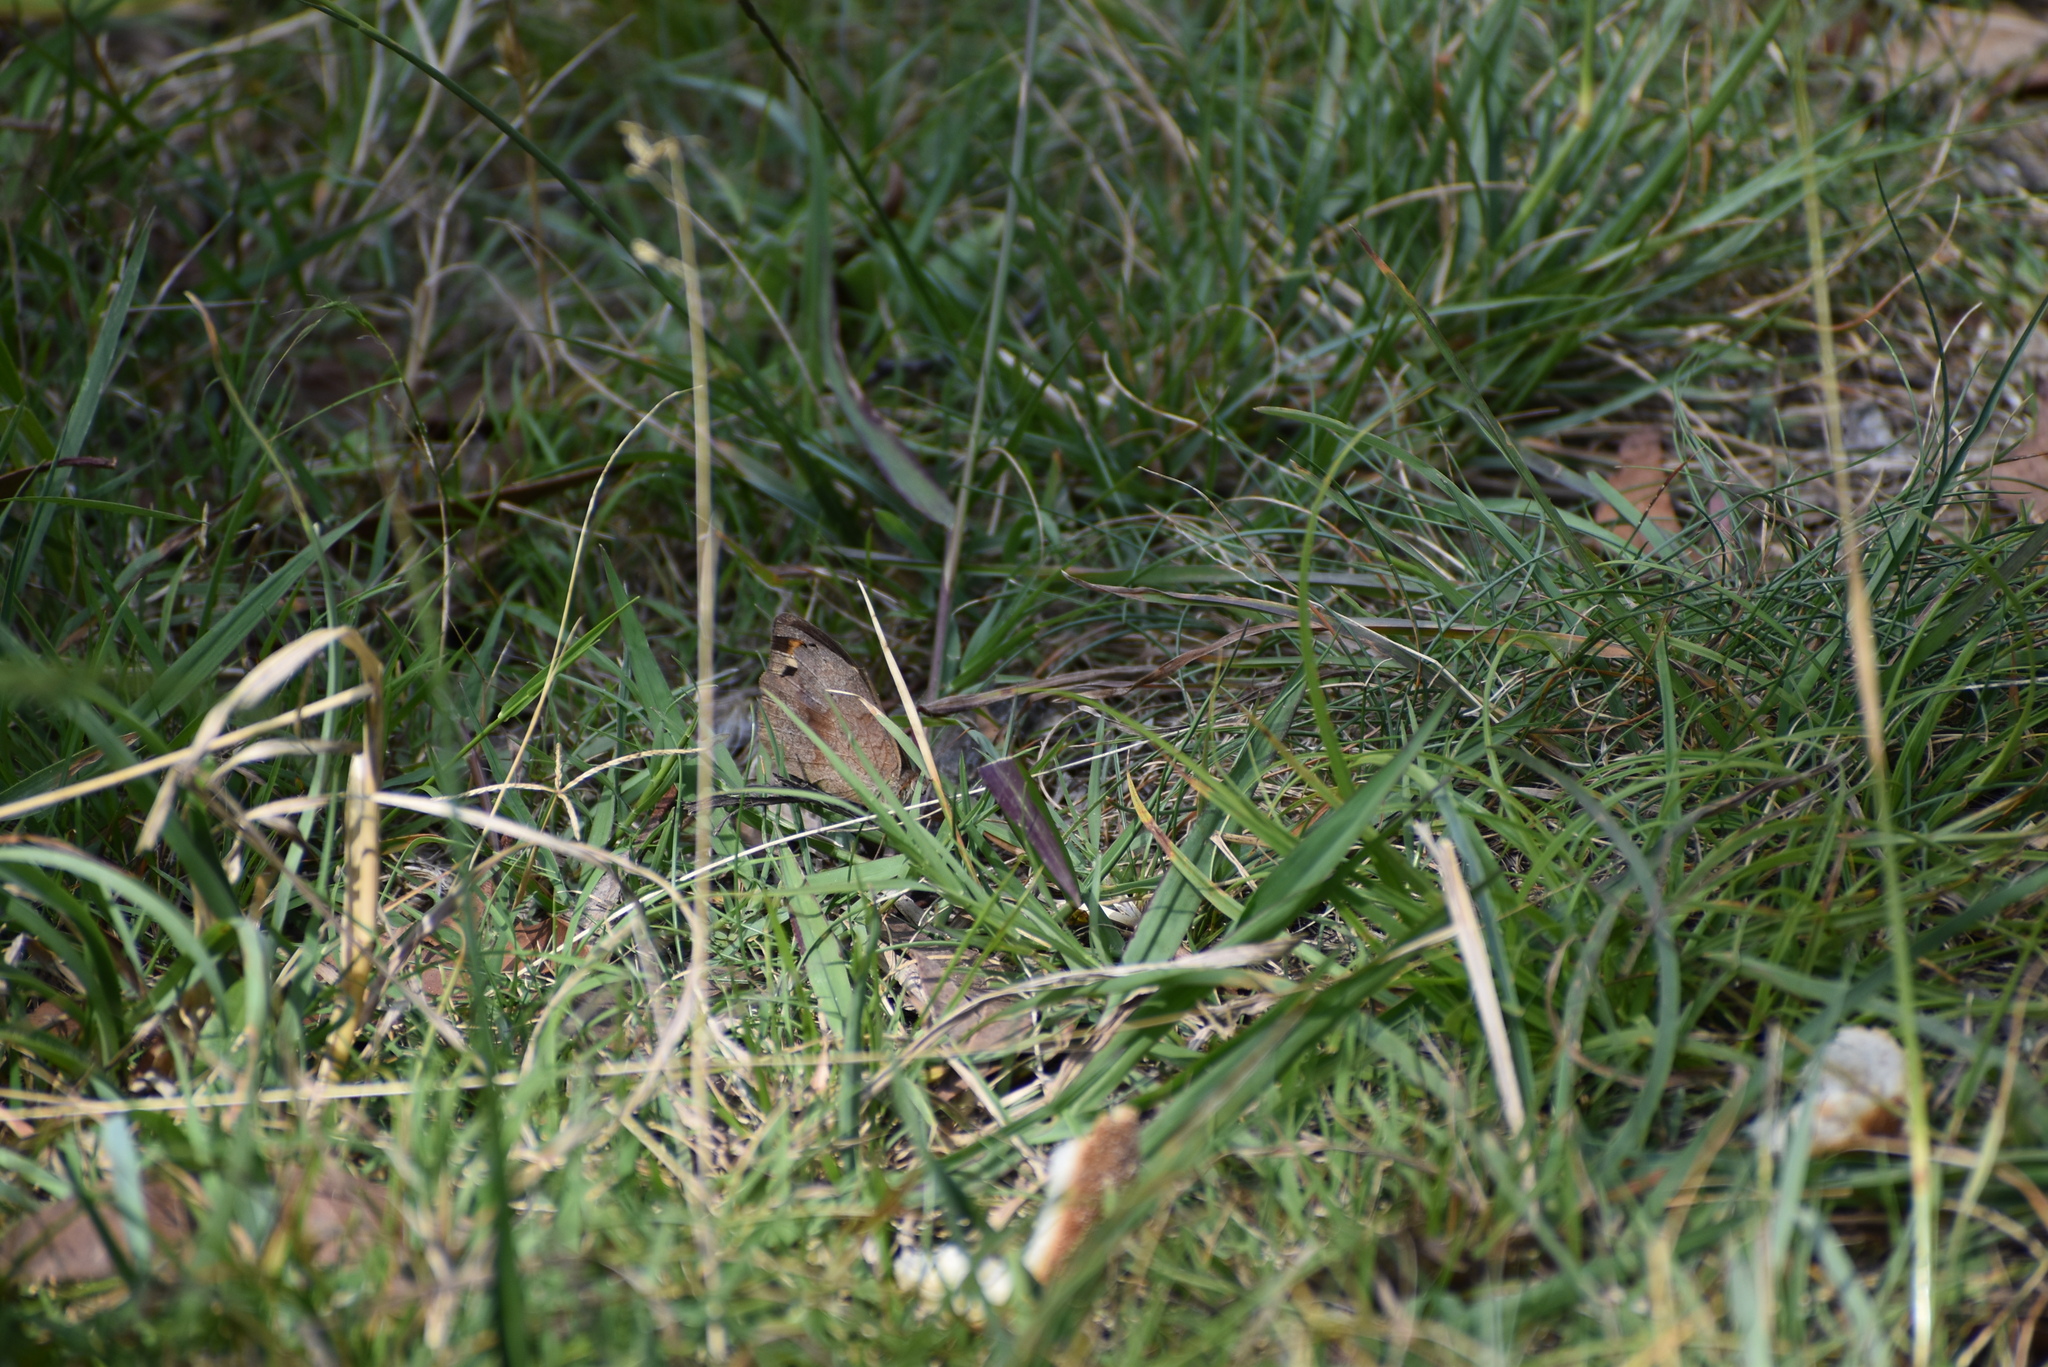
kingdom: Animalia
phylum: Arthropoda
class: Insecta
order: Lepidoptera
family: Nymphalidae
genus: Heteronympha
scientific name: Heteronympha merope
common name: Common brown
